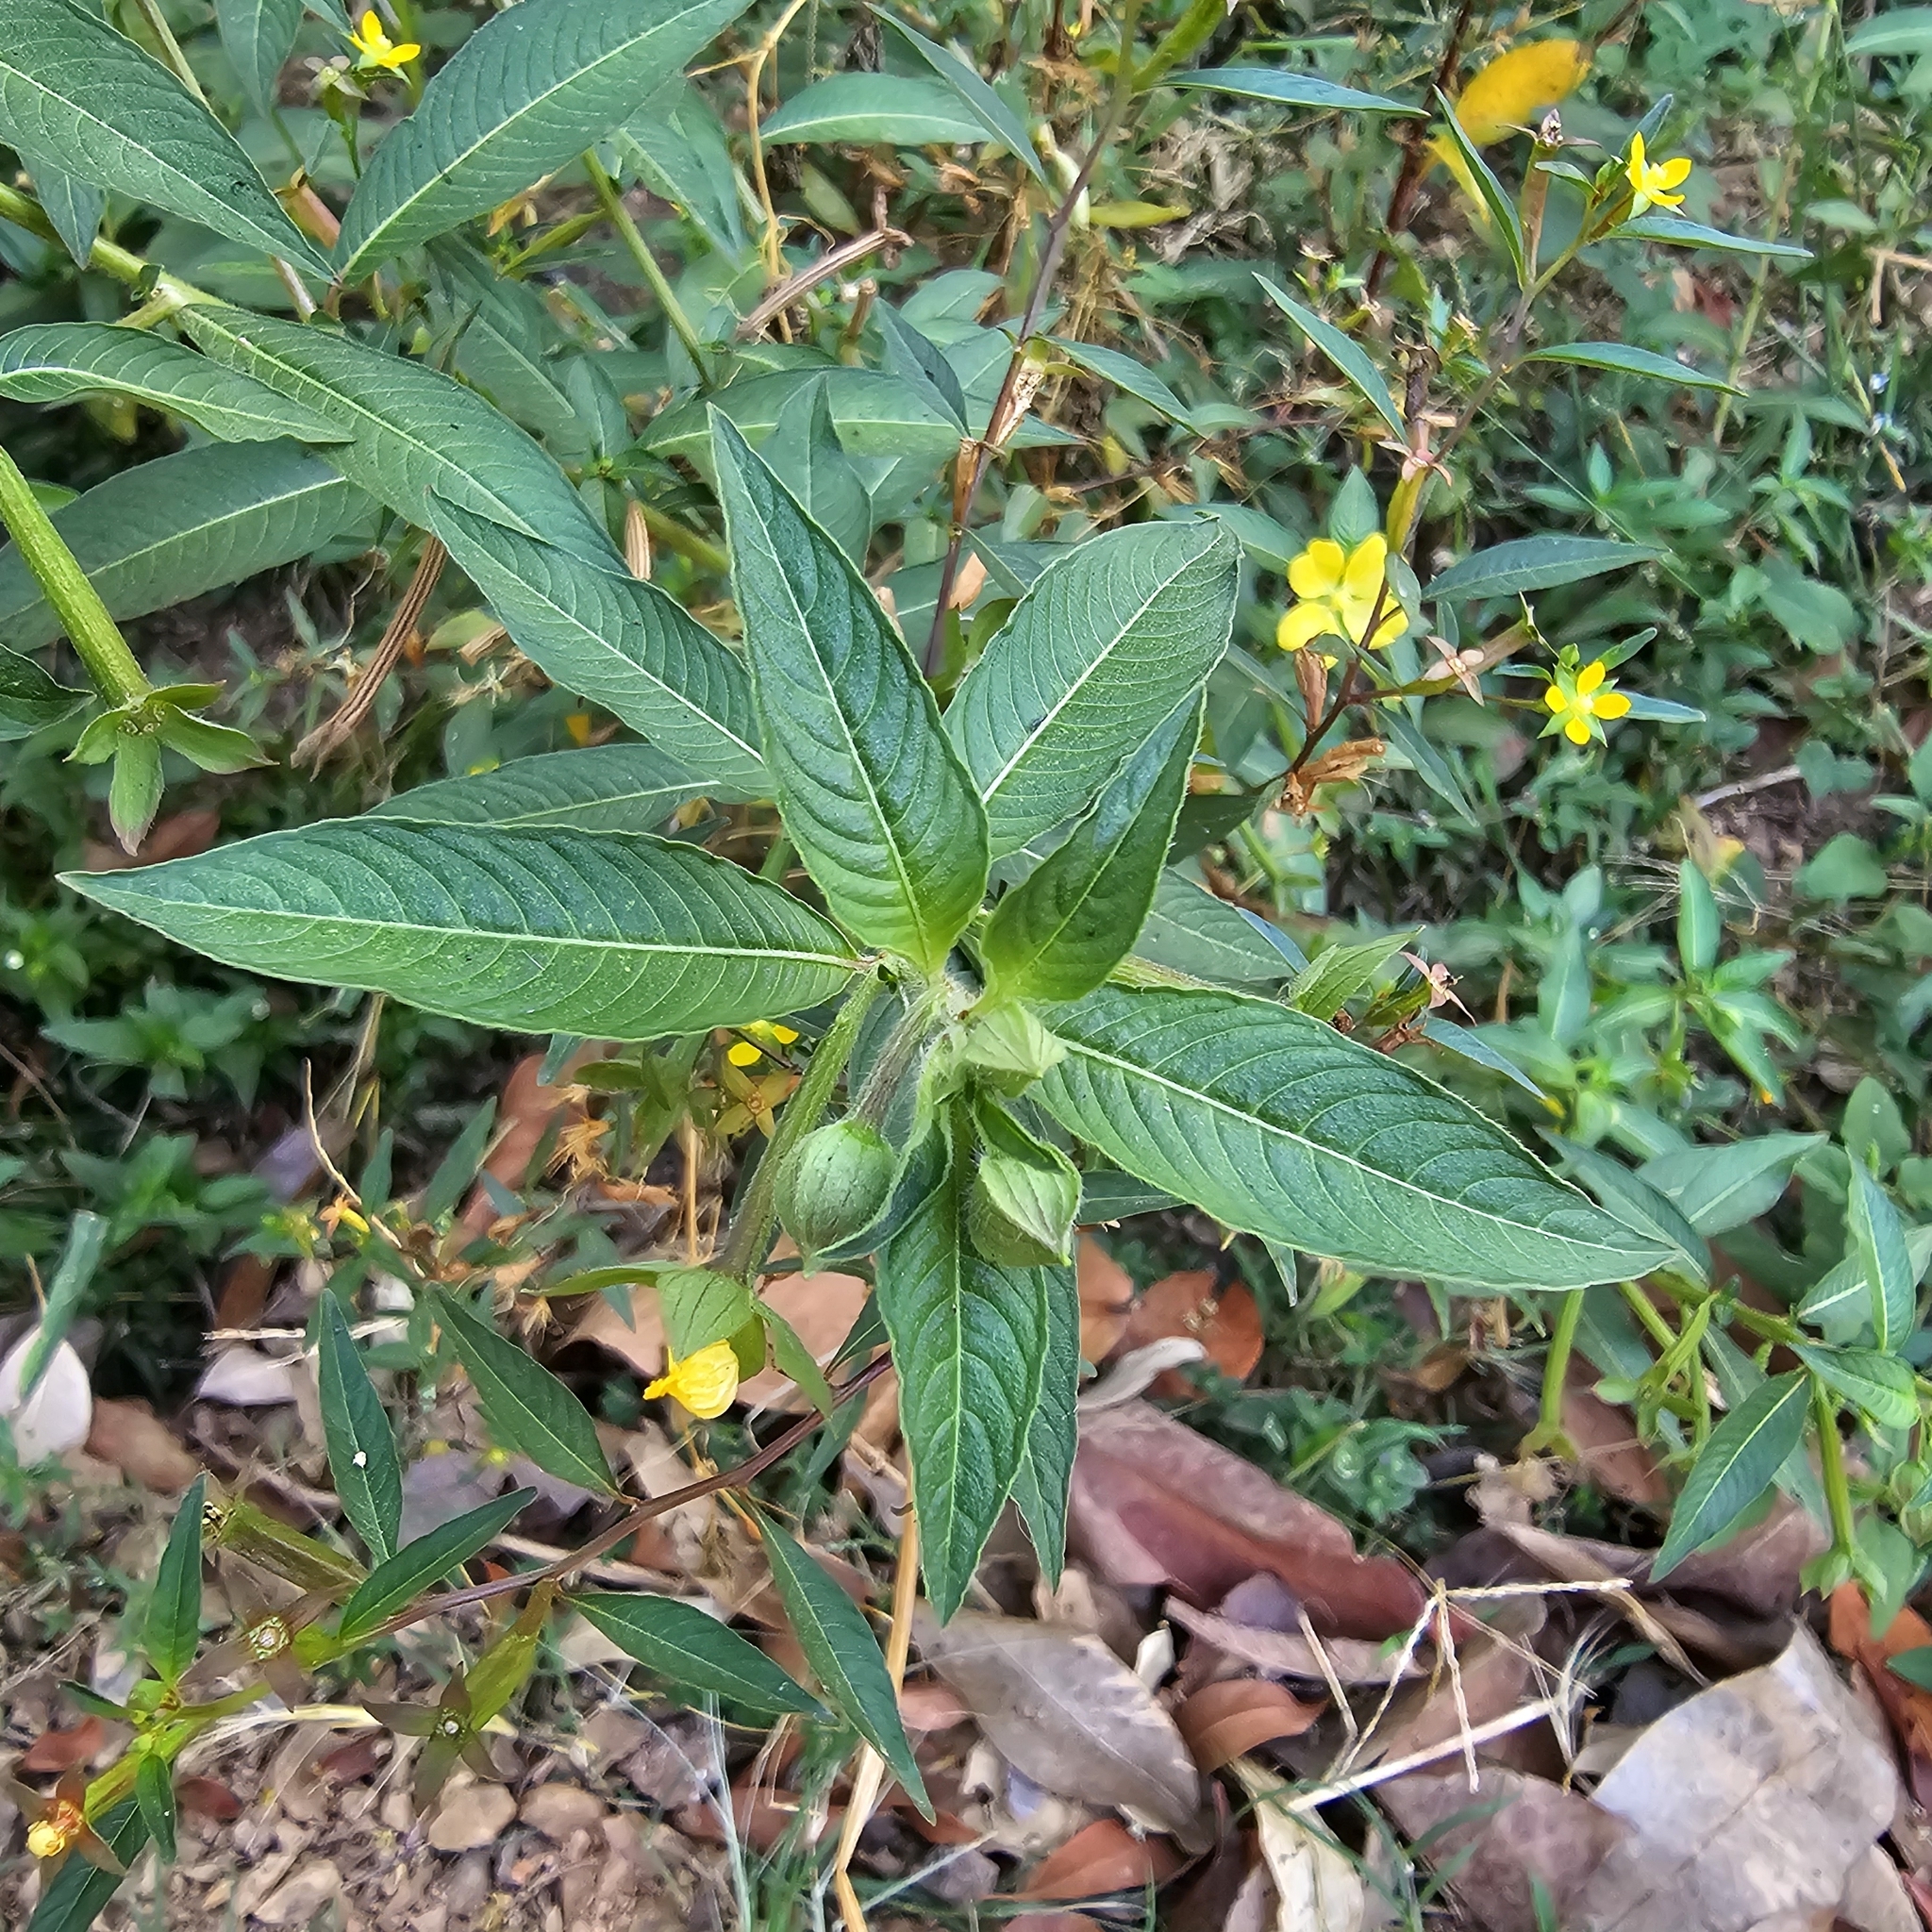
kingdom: Plantae
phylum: Tracheophyta
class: Magnoliopsida
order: Myrtales
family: Onagraceae
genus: Ludwigia
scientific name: Ludwigia octovalvis
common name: Water-primrose
